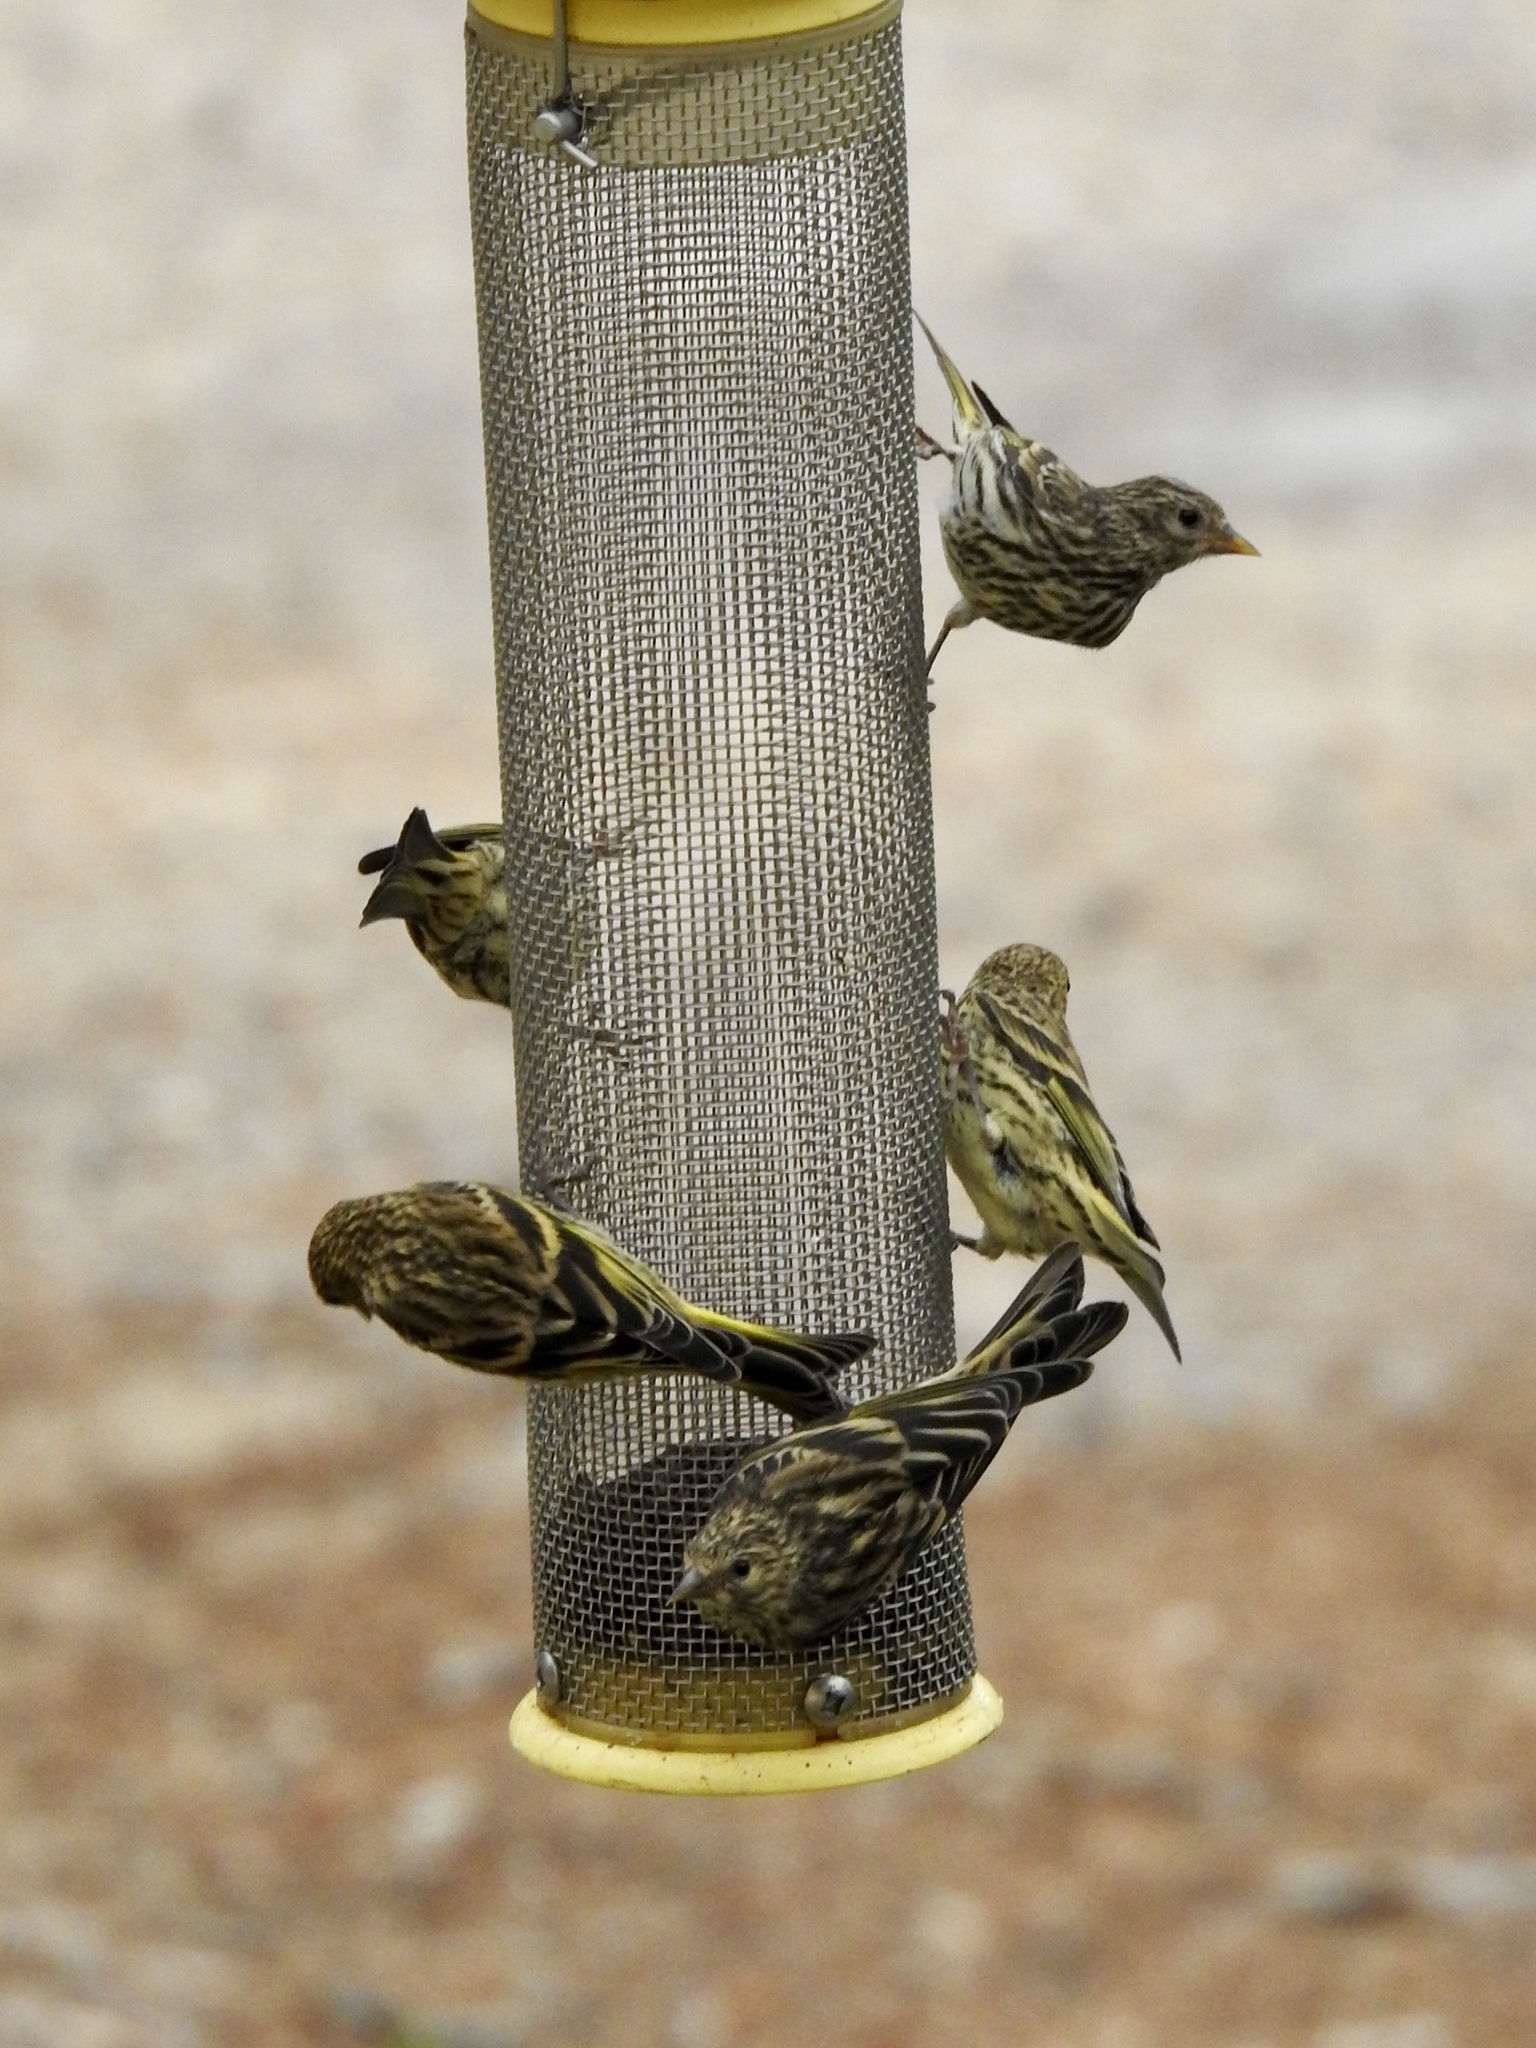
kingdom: Animalia
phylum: Chordata
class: Aves
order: Passeriformes
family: Fringillidae
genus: Spinus
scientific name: Spinus pinus
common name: Pine siskin
